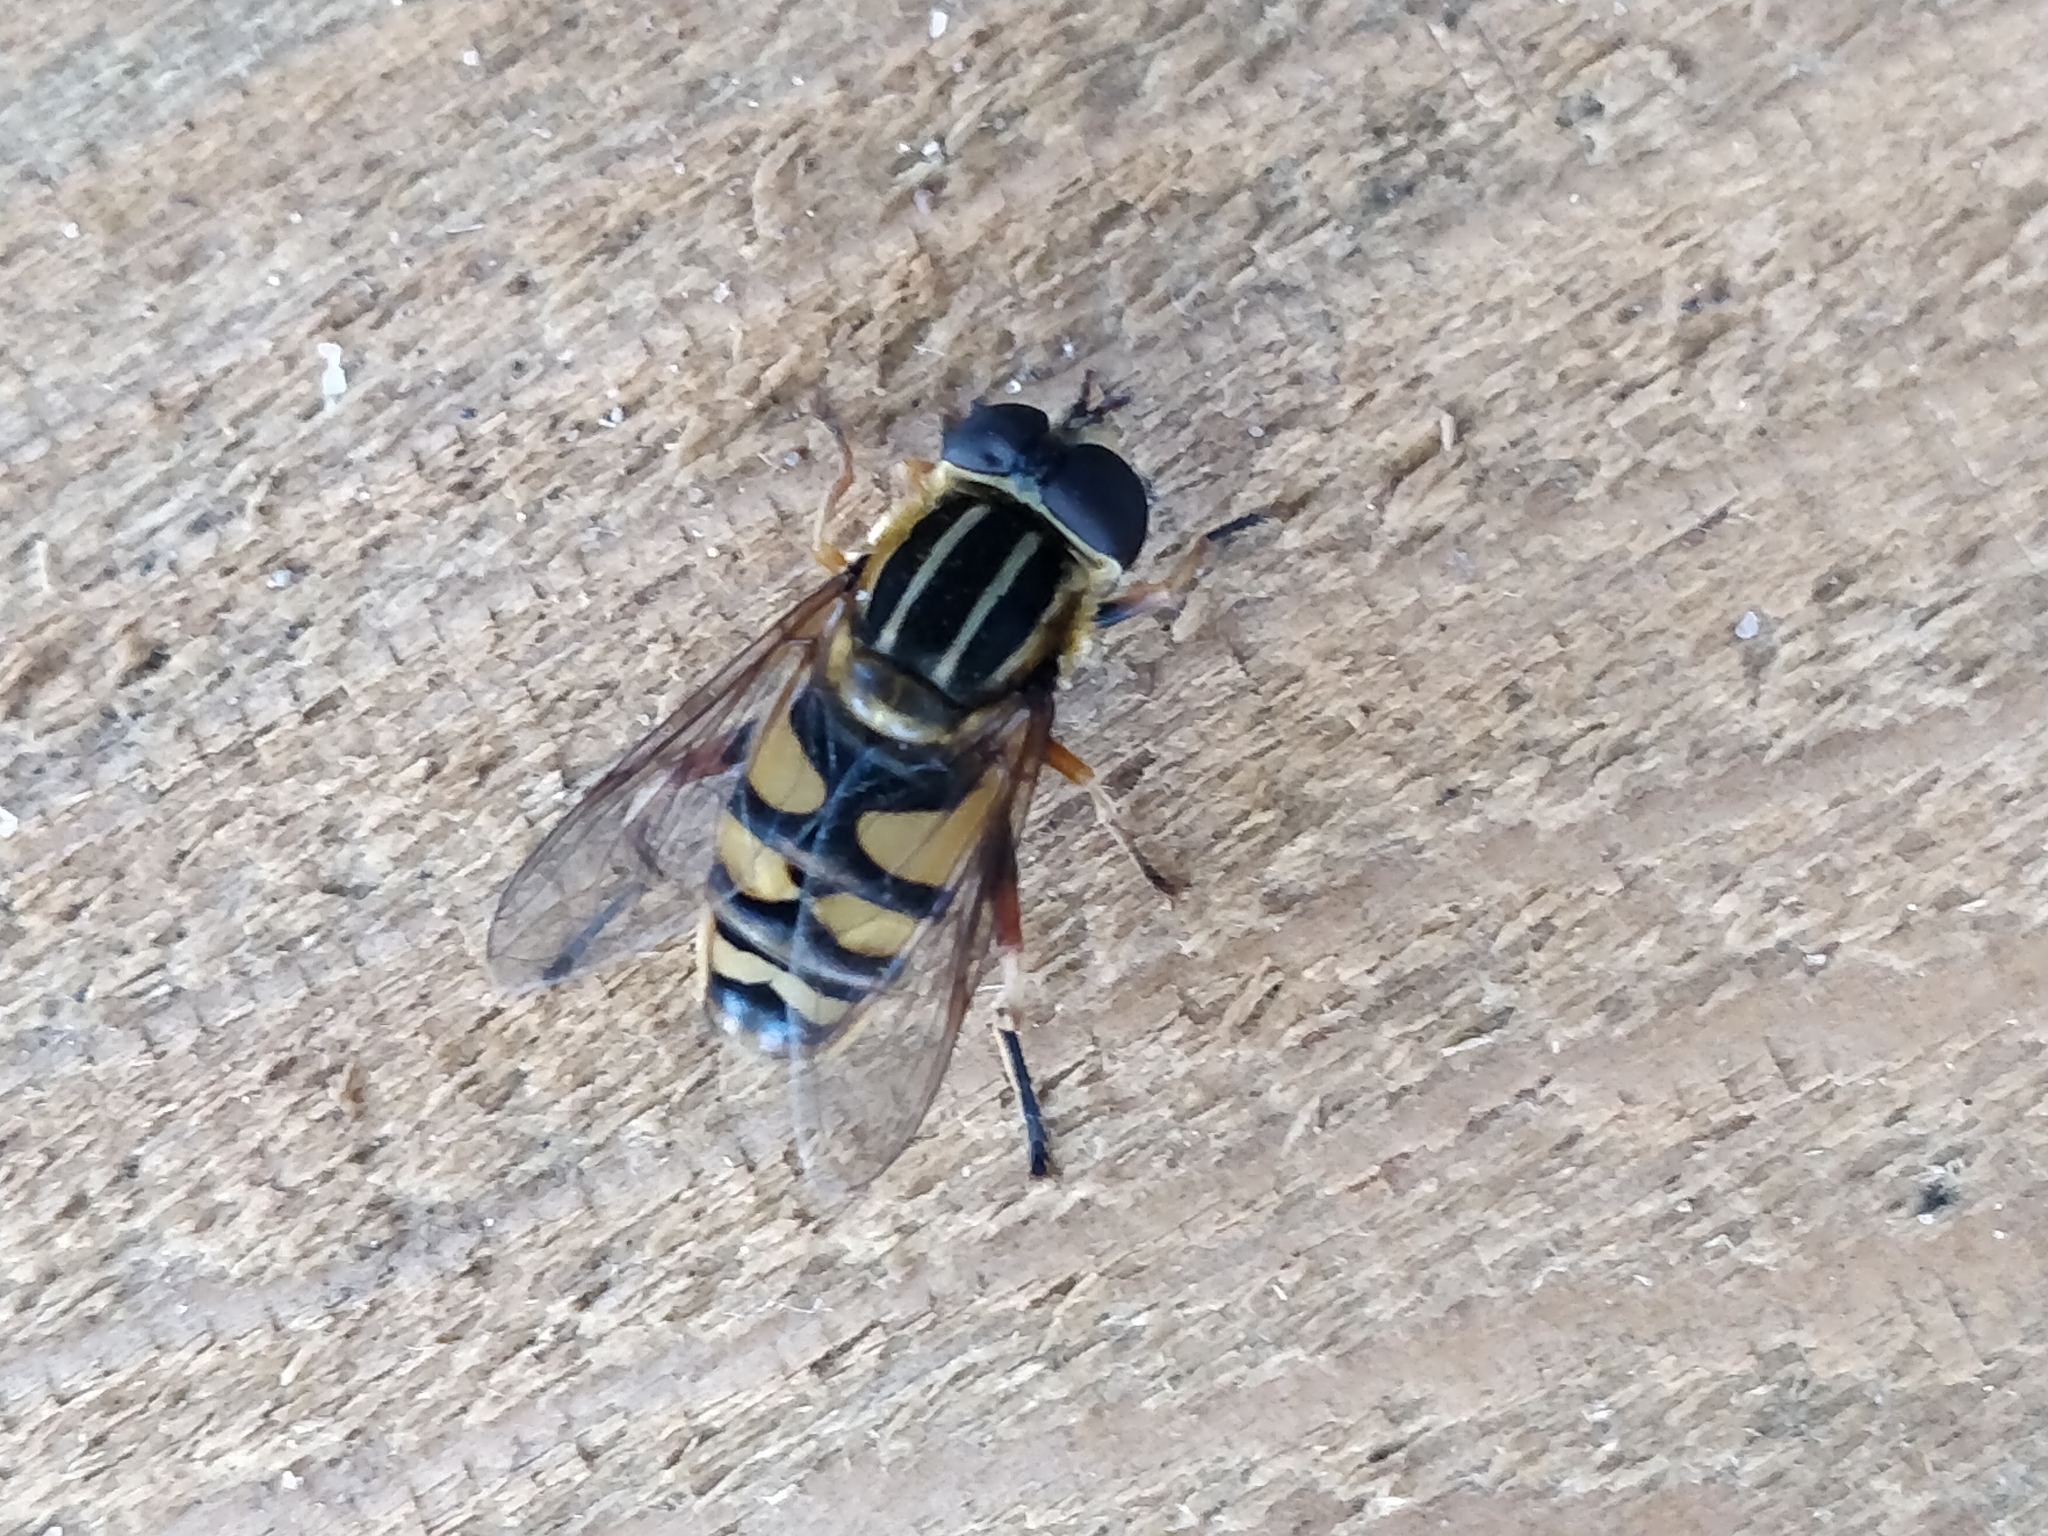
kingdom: Animalia
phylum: Arthropoda
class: Insecta
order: Diptera
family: Syrphidae
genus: Helophilus
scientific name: Helophilus fasciatus
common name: Narrow-headed marsh fly
